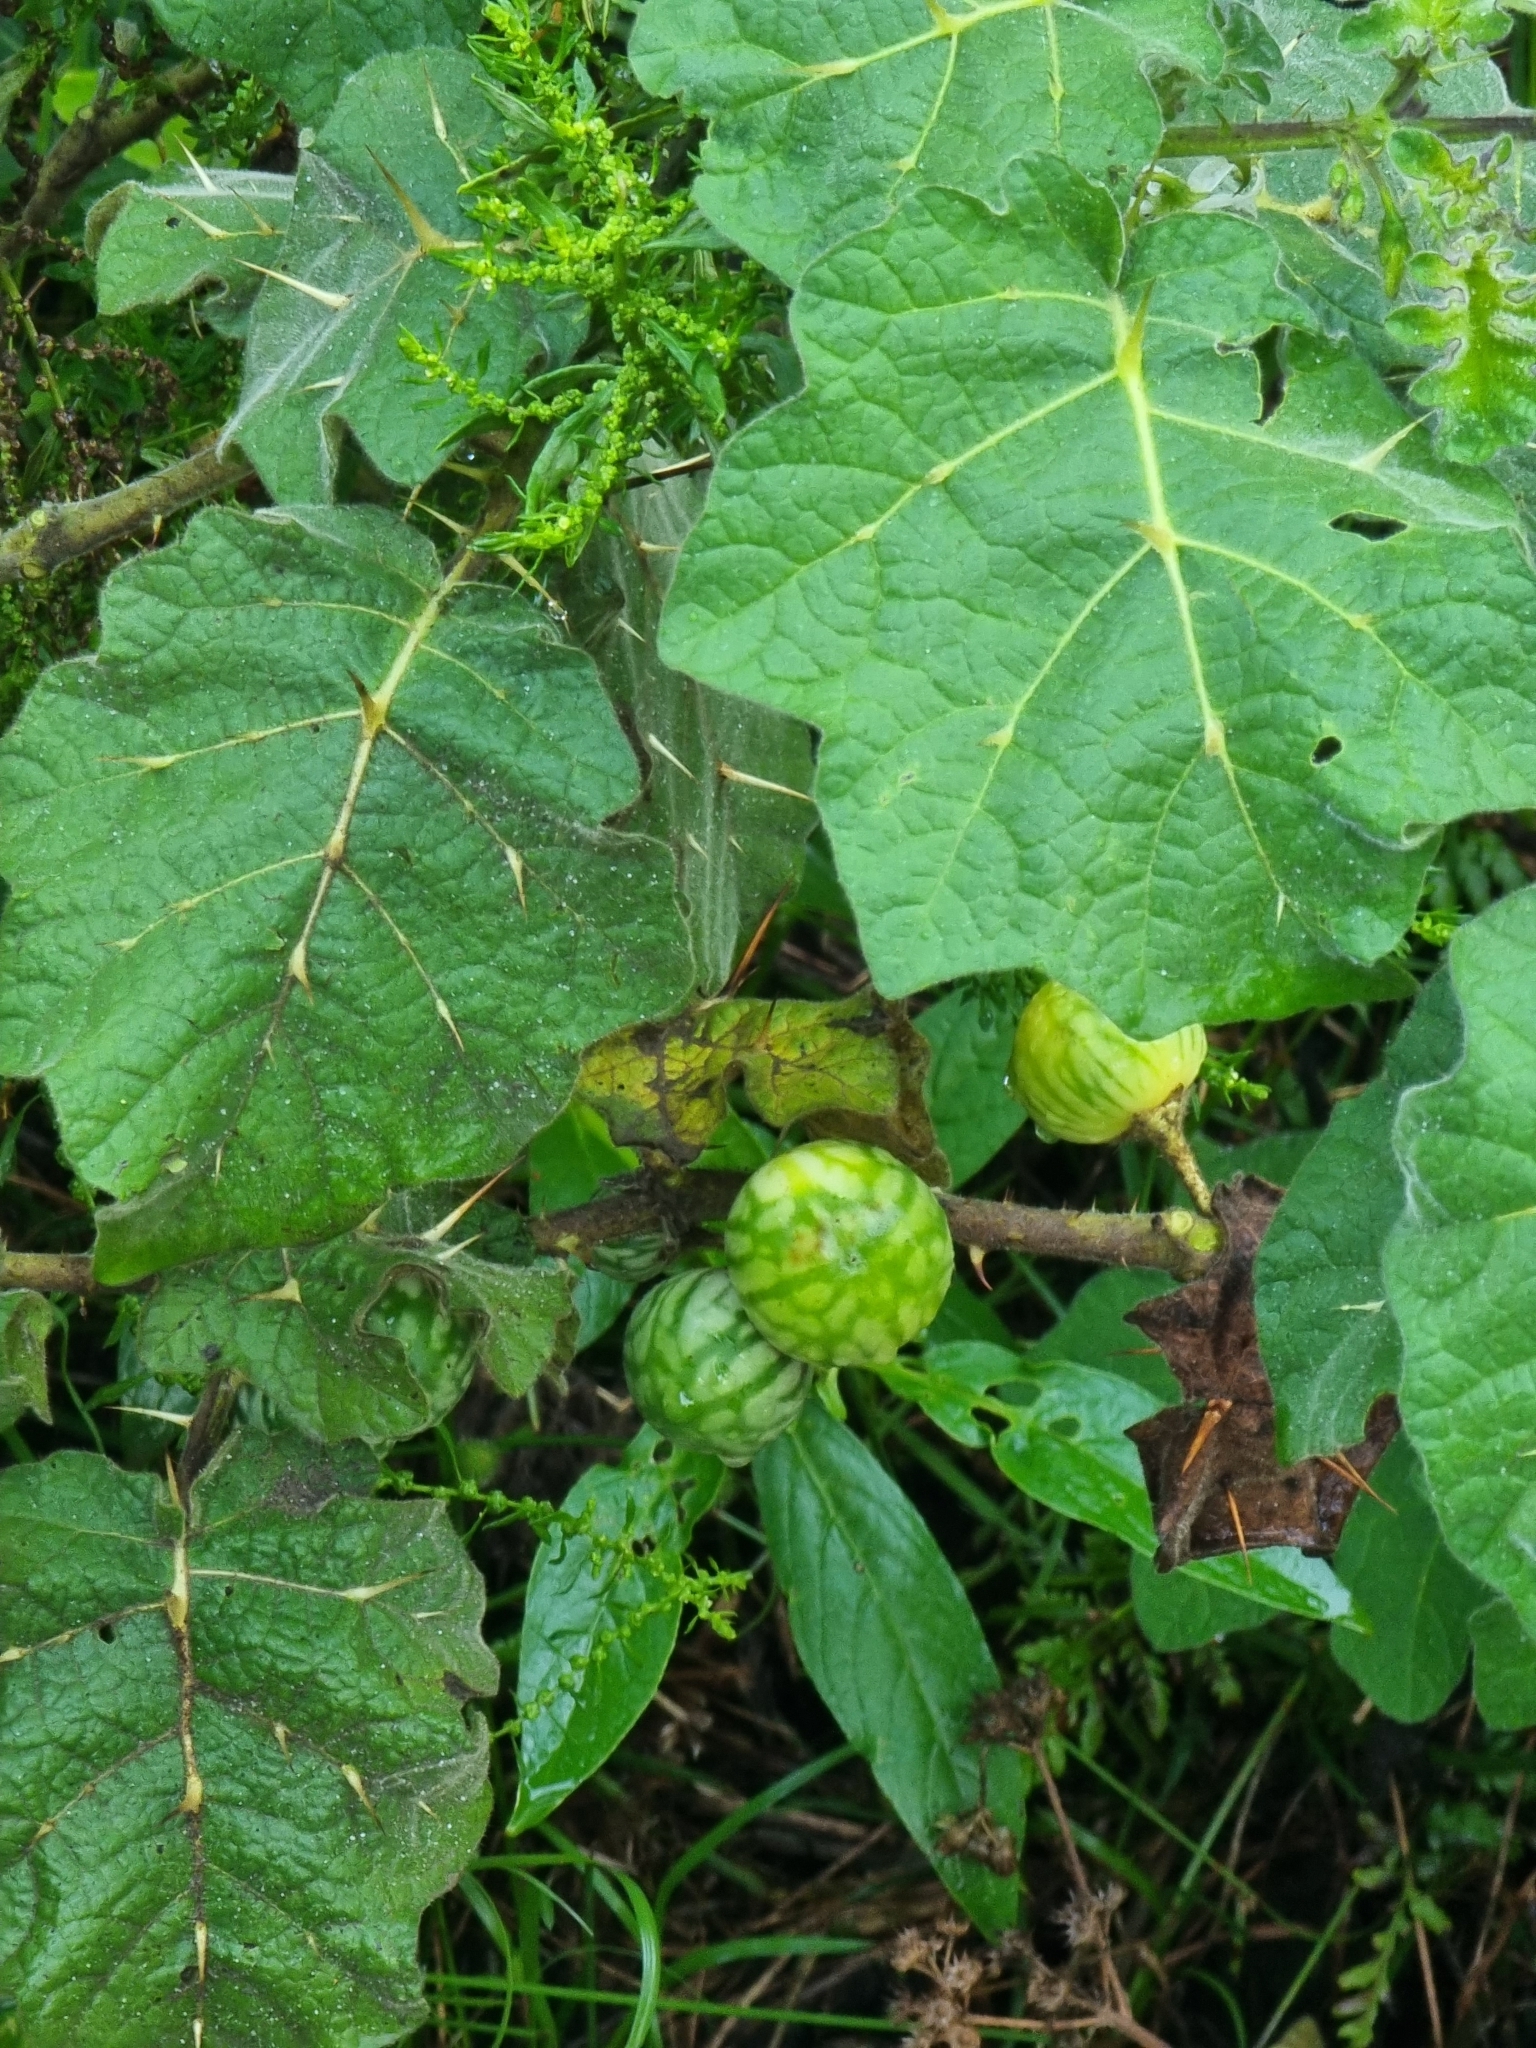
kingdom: Plantae
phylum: Tracheophyta
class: Magnoliopsida
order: Solanales
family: Solanaceae
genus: Solanum
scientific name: Solanum viarum
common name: Tropical soda apple
